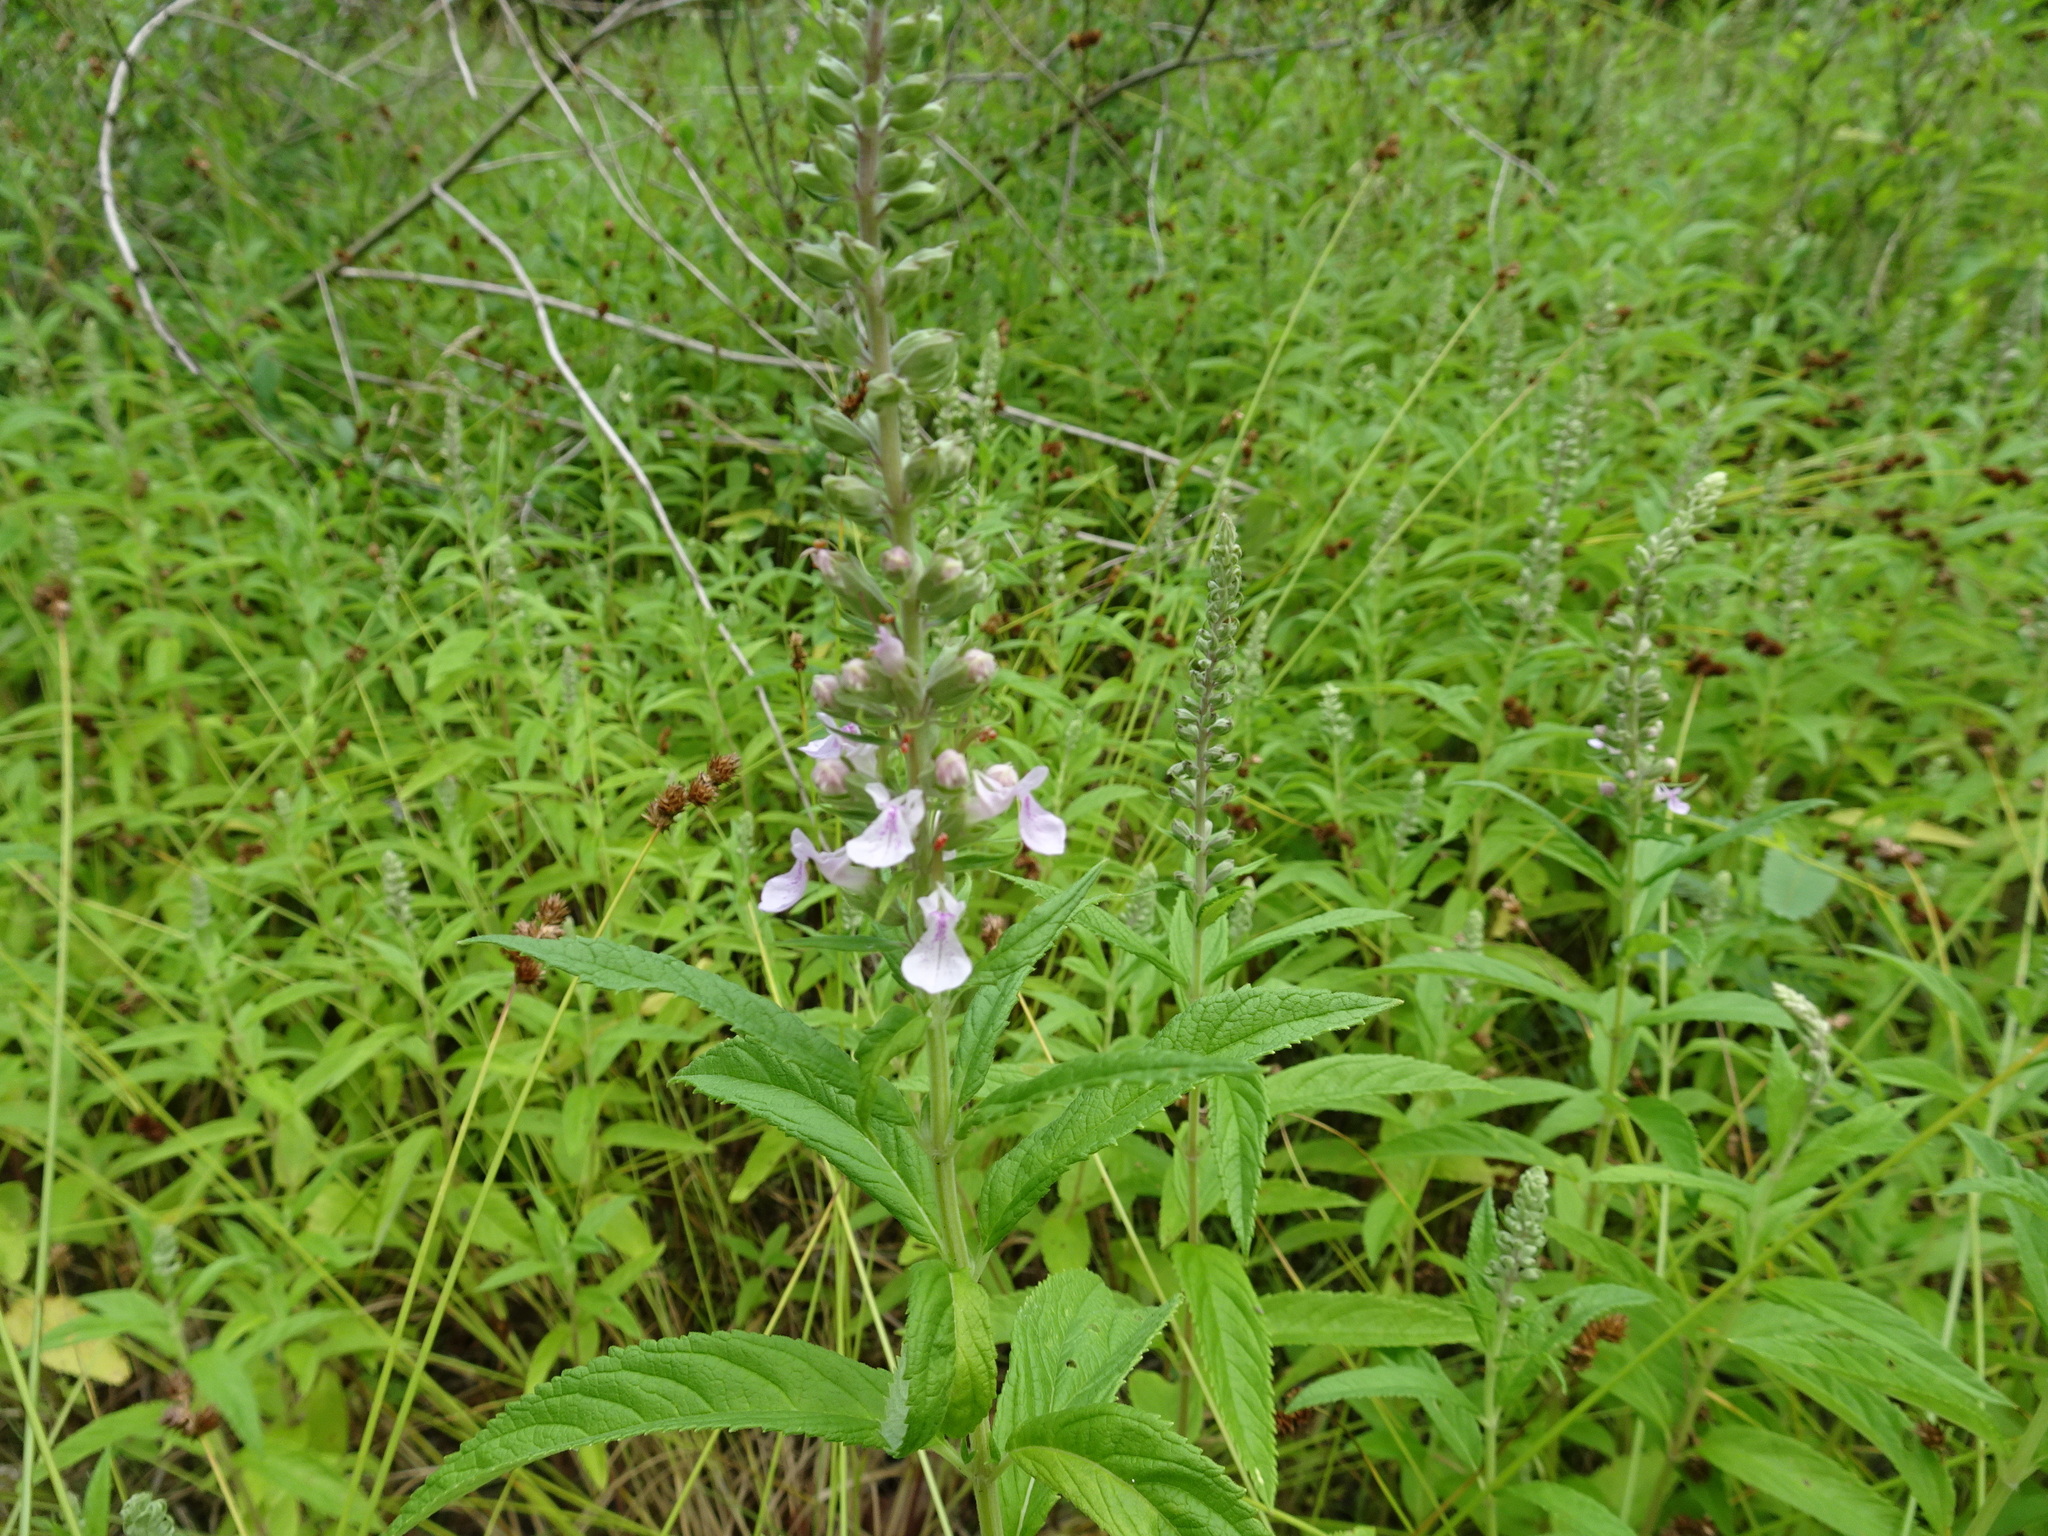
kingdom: Plantae
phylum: Tracheophyta
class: Magnoliopsida
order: Lamiales
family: Lamiaceae
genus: Teucrium
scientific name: Teucrium canadense
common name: American germander
